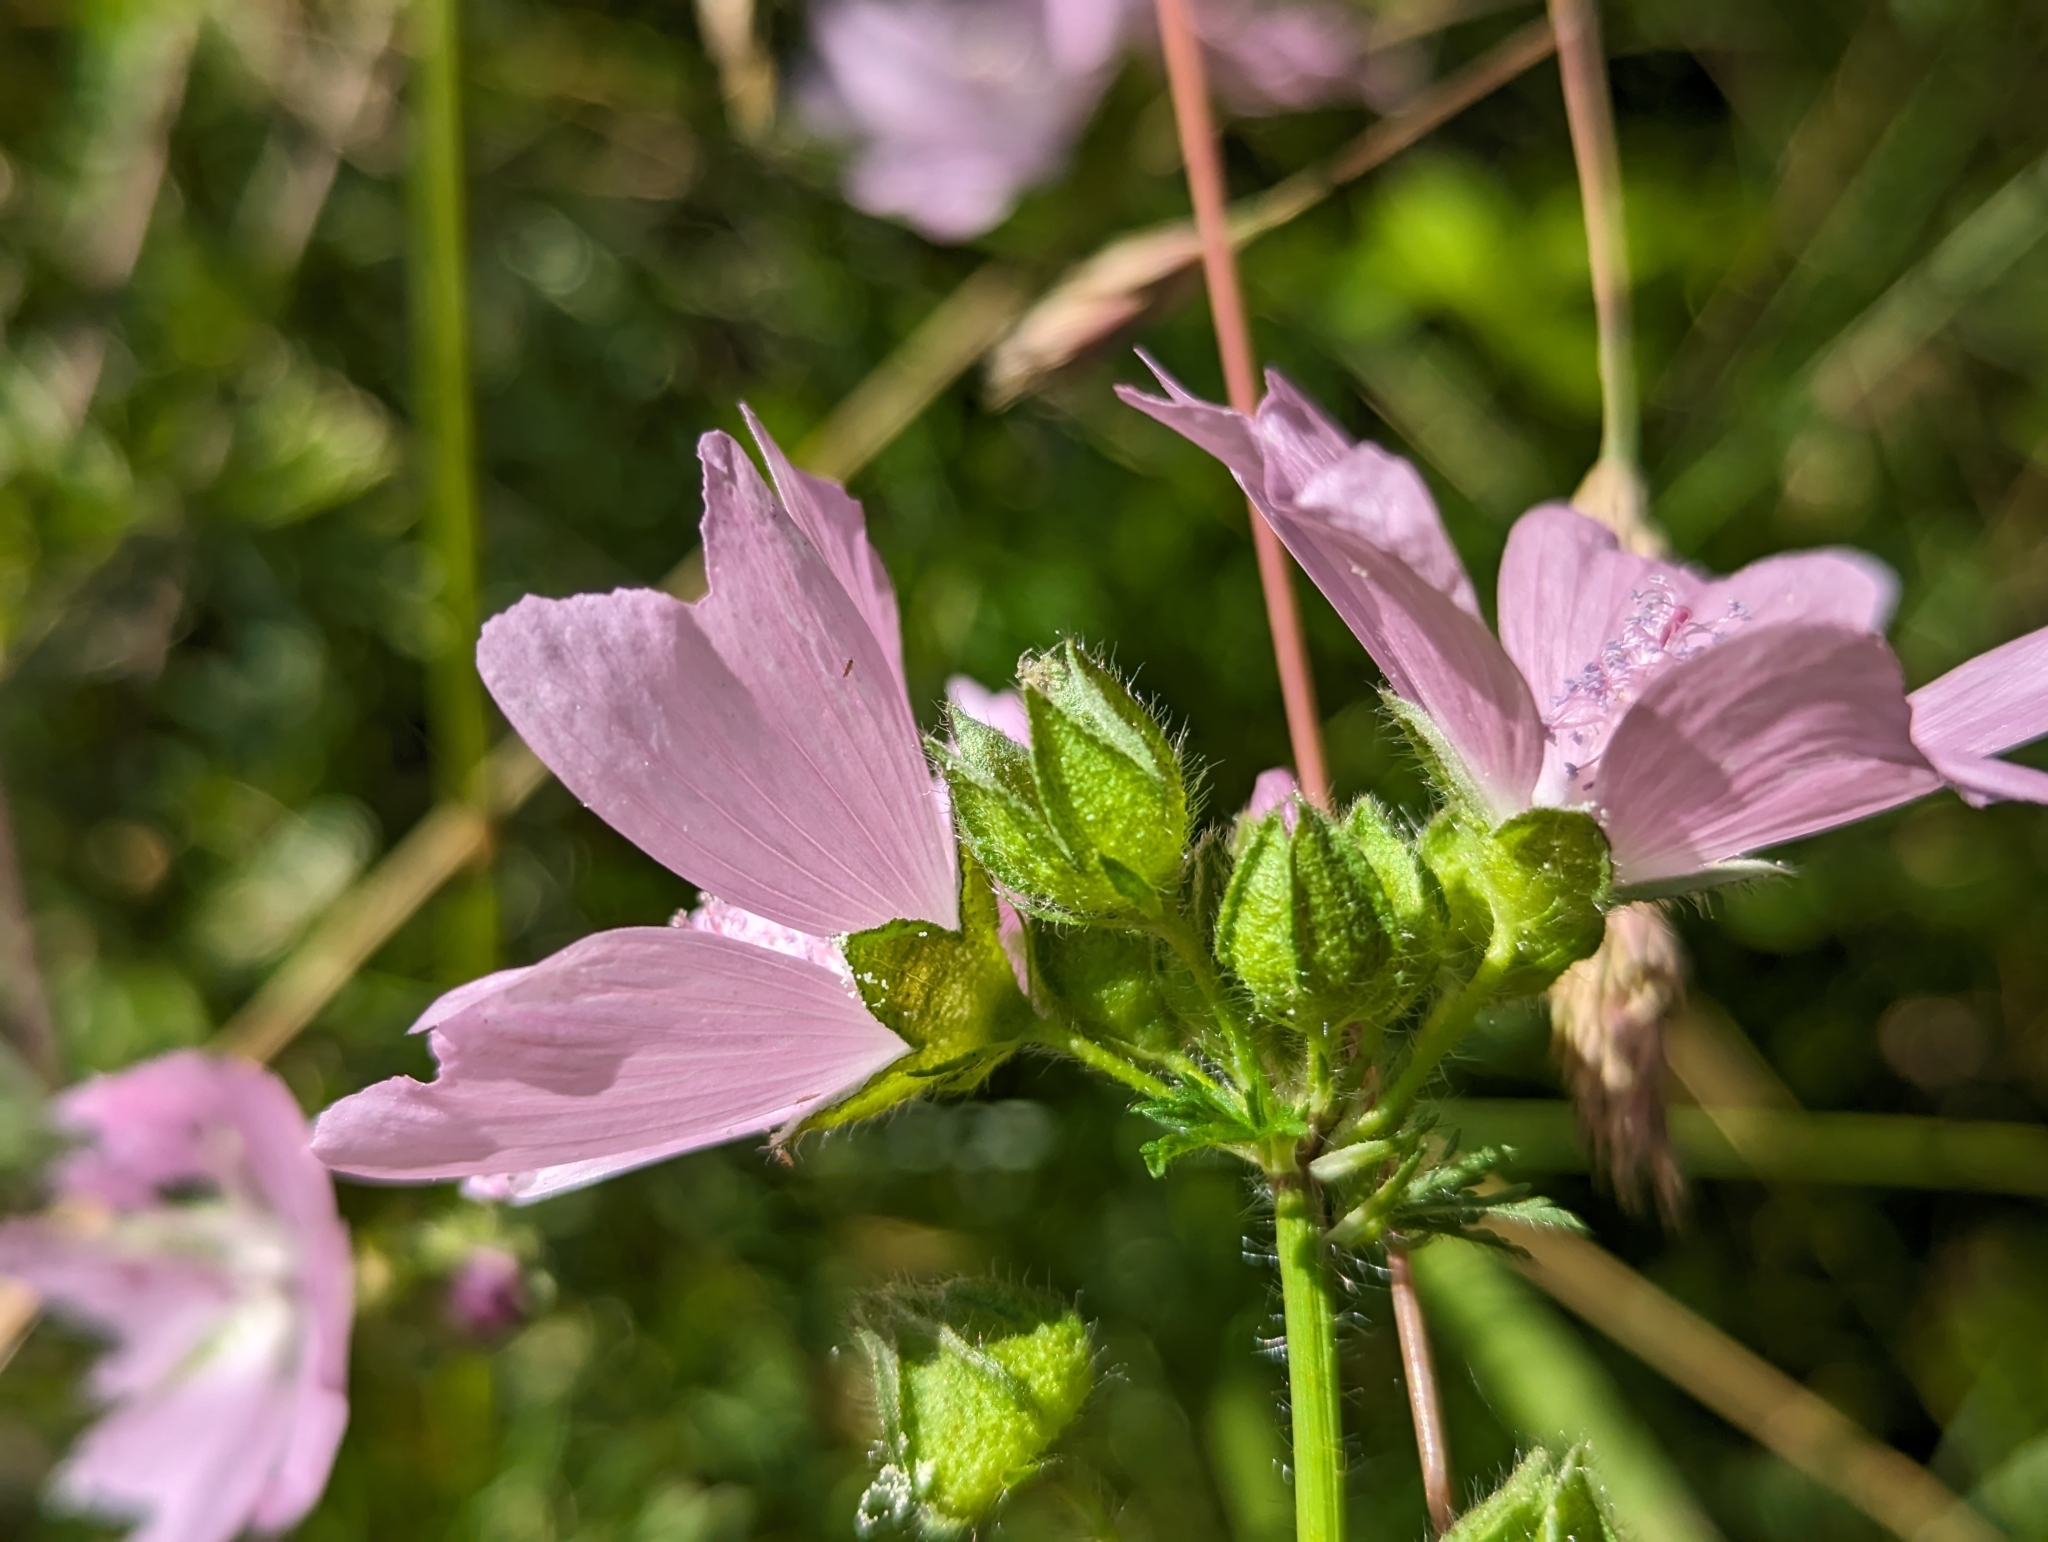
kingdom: Plantae
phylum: Tracheophyta
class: Magnoliopsida
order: Malvales
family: Malvaceae
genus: Malva
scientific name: Malva moschata
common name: Musk mallow
